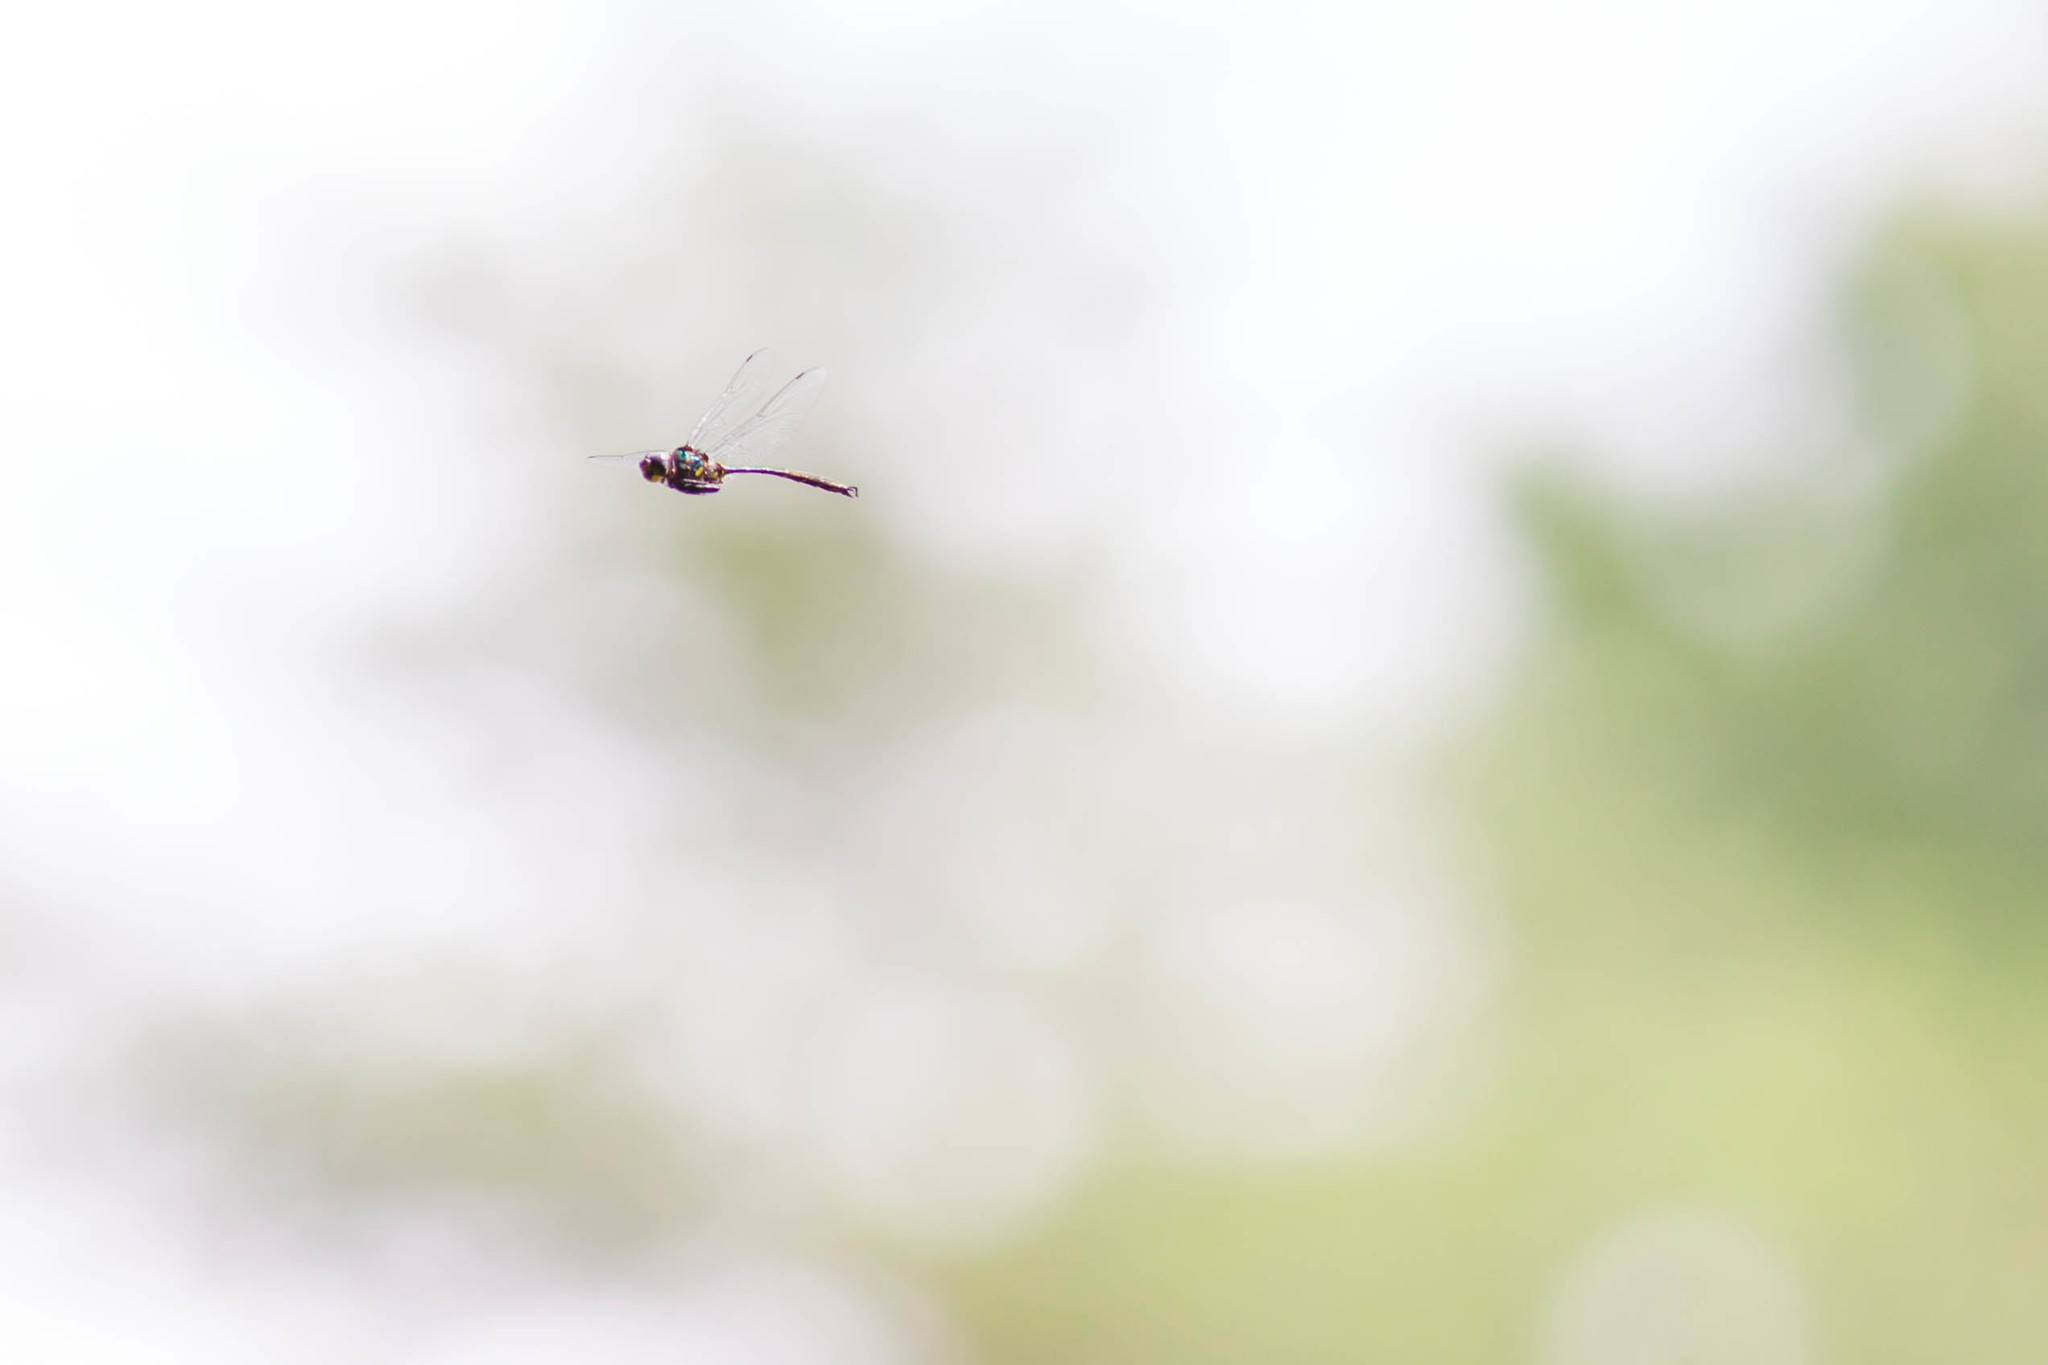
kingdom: Animalia
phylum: Arthropoda
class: Insecta
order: Odonata
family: Corduliidae
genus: Somatochlora
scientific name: Somatochlora tenebrosa
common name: Clamp-tipped emerald
